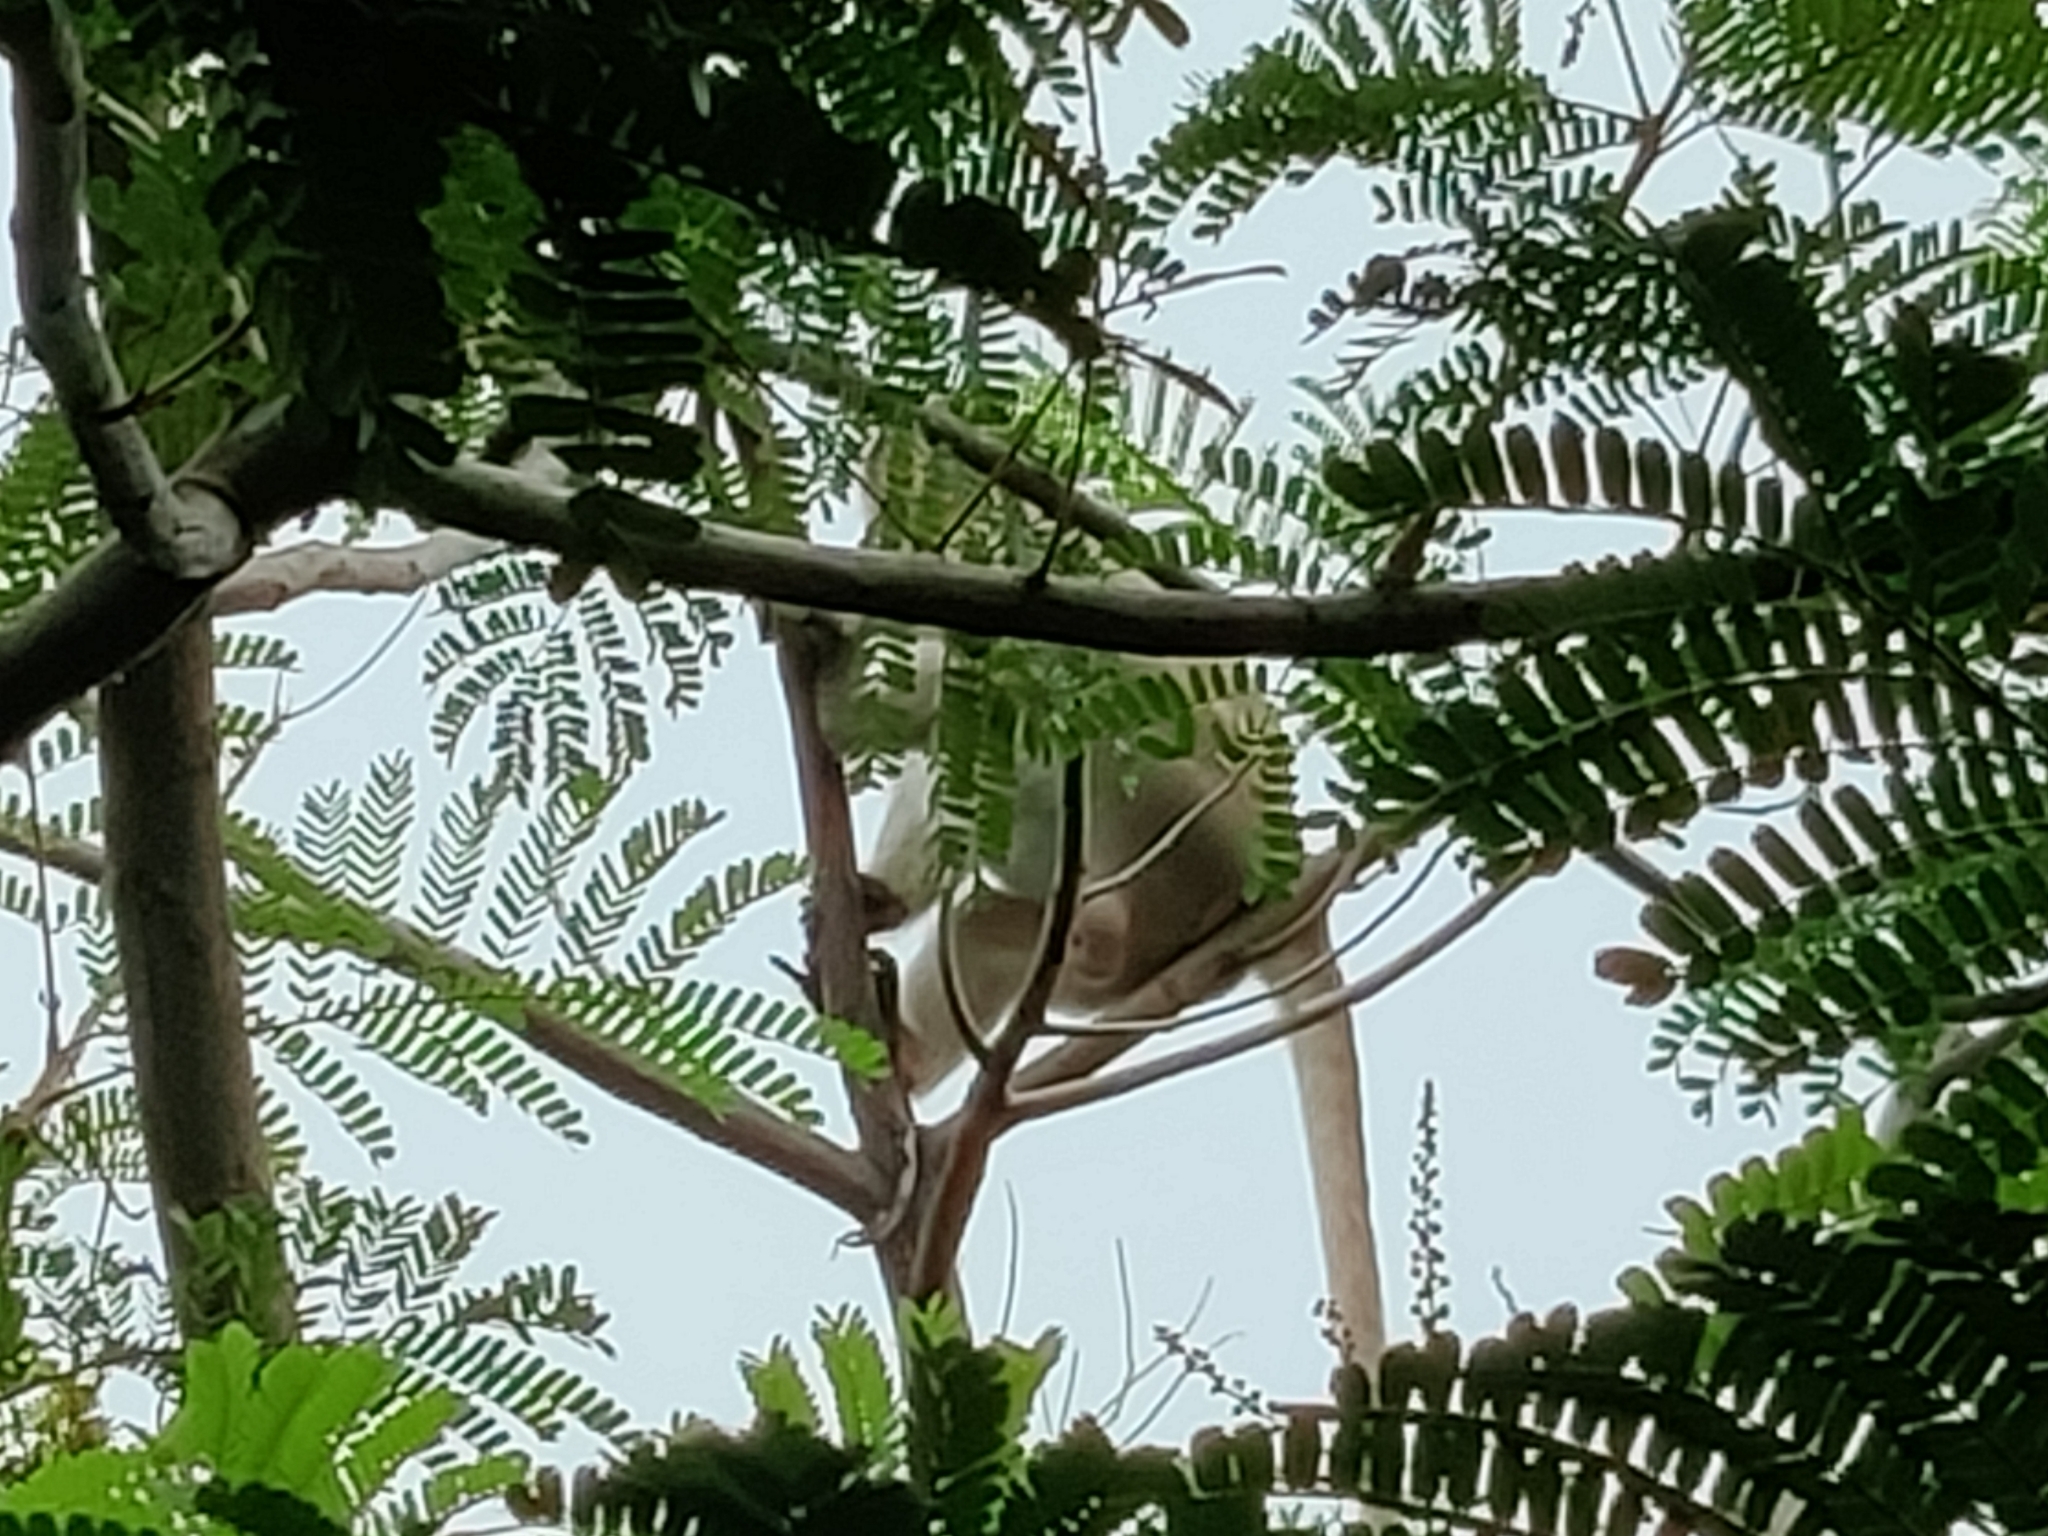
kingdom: Animalia
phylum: Chordata
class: Mammalia
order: Primates
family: Cercopithecidae
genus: Macaca
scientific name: Macaca radiata
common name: Bonnet macaque
